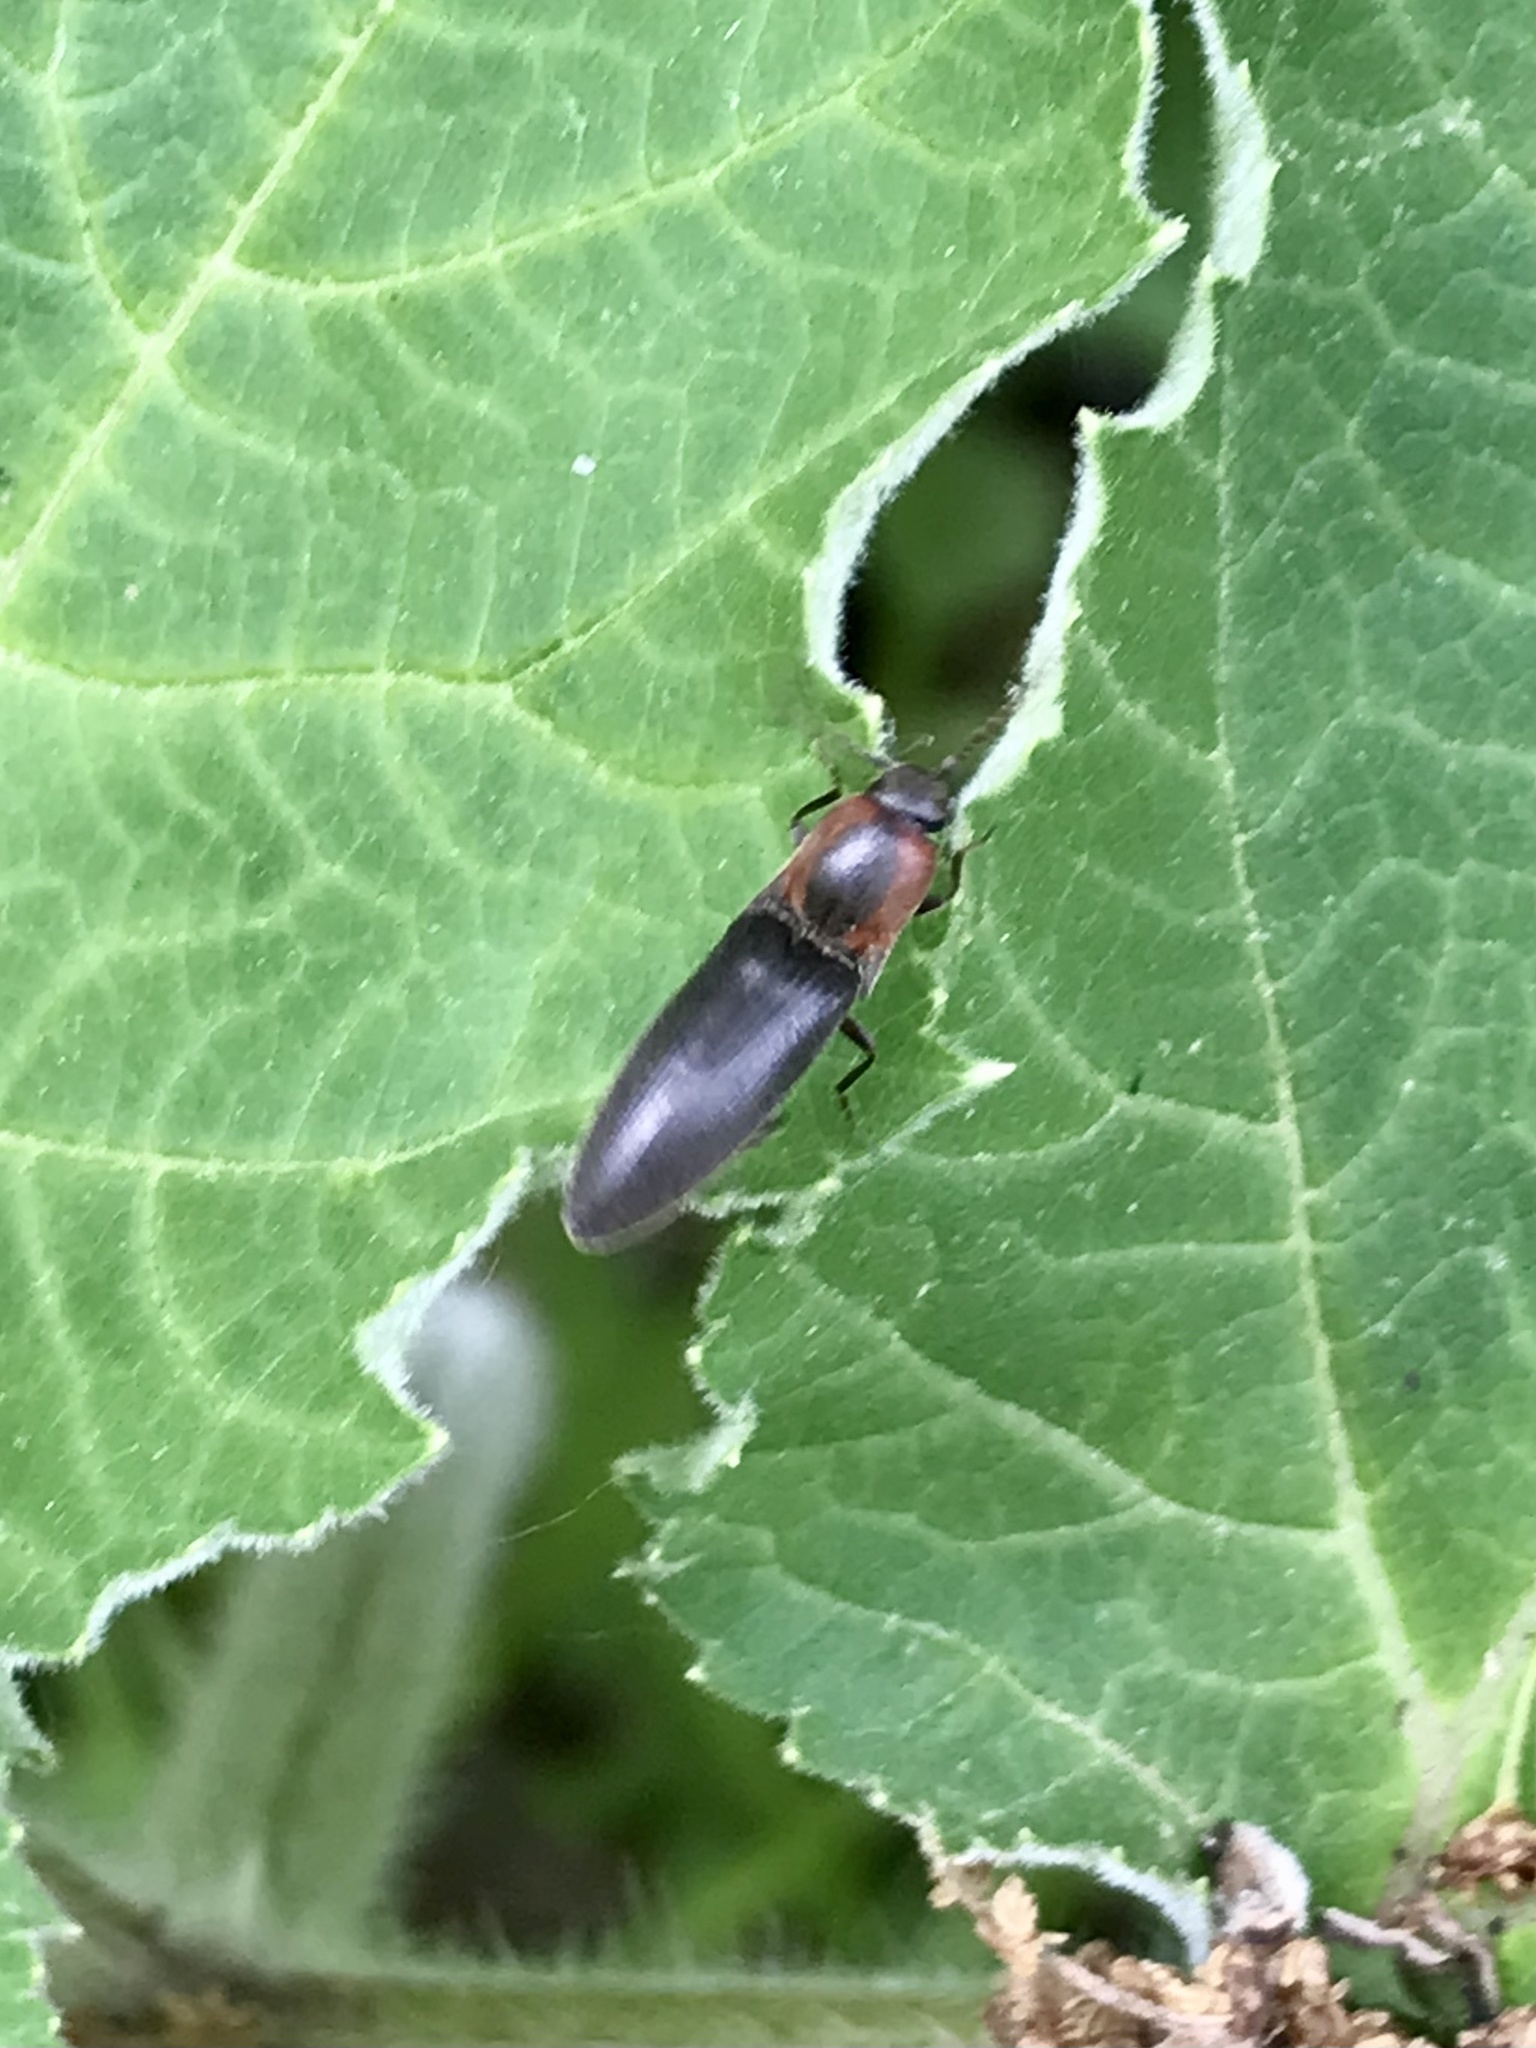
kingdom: Animalia
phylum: Arthropoda
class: Insecta
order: Coleoptera
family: Elateridae
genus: Agriotes
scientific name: Agriotes fucosus
